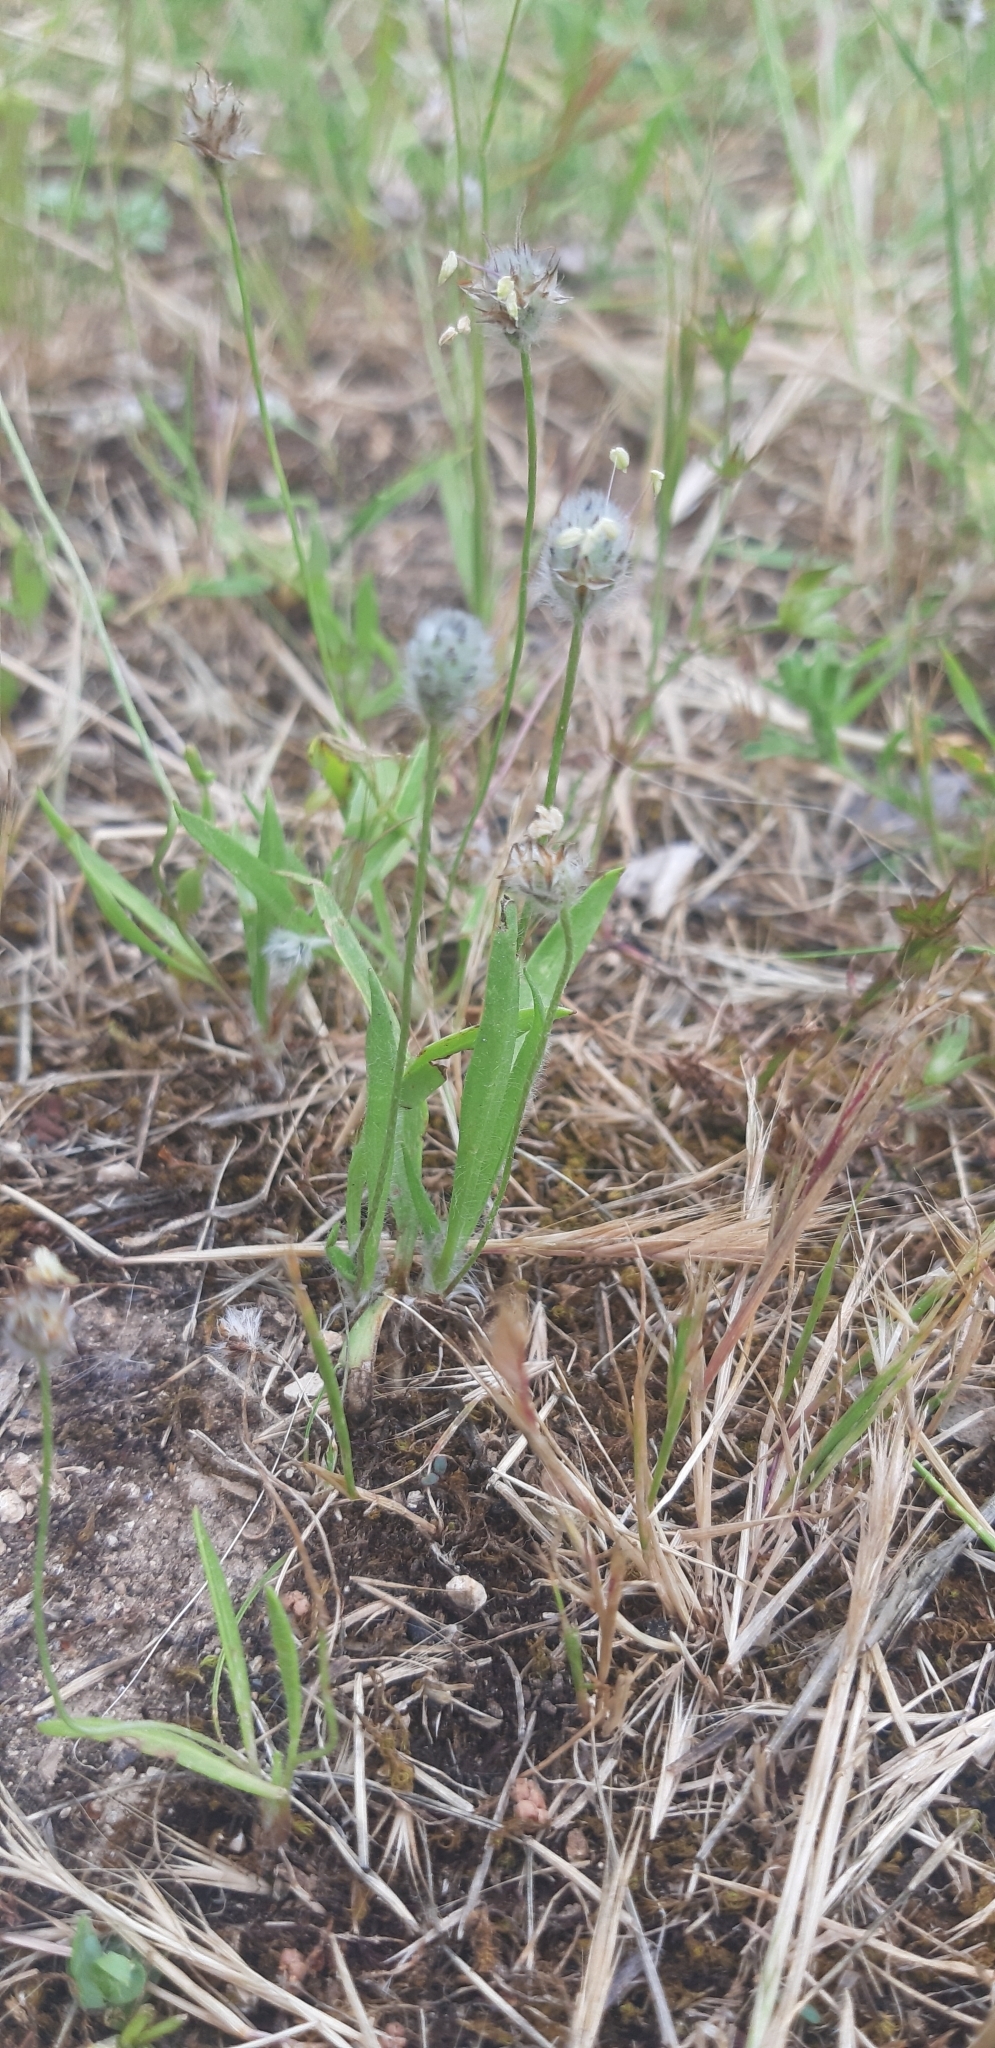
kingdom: Plantae
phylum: Tracheophyta
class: Magnoliopsida
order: Lamiales
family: Plantaginaceae
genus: Plantago
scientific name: Plantago lagopus
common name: Hare-foot plantain
